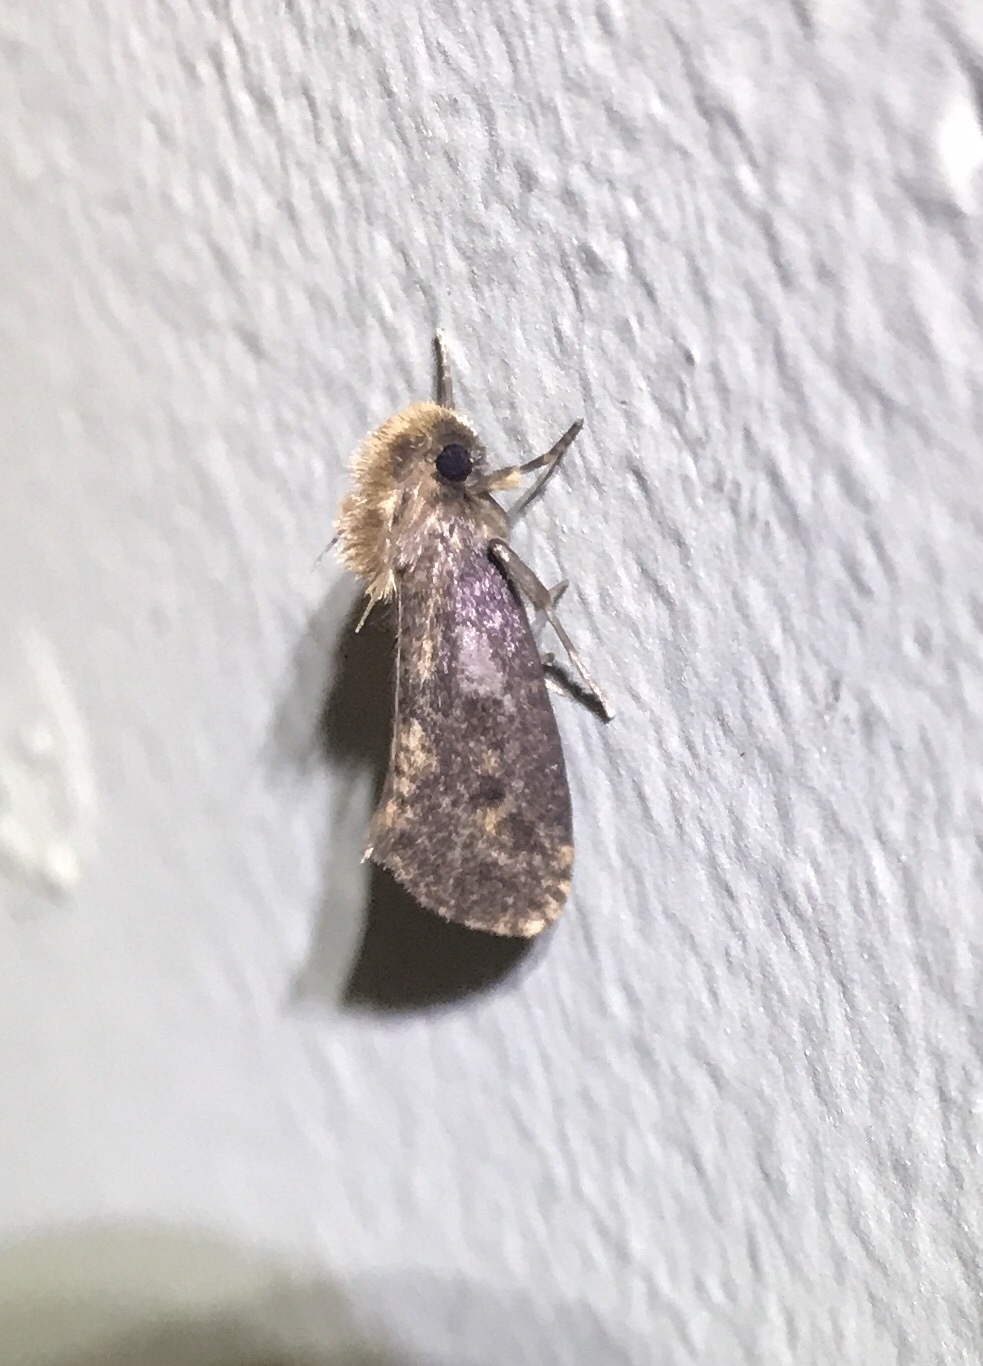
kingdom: Animalia
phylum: Arthropoda
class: Insecta
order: Lepidoptera
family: Tineidae
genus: Acrolophus
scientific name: Acrolophus popeanella
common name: Clemens' grass tubeworm moth
